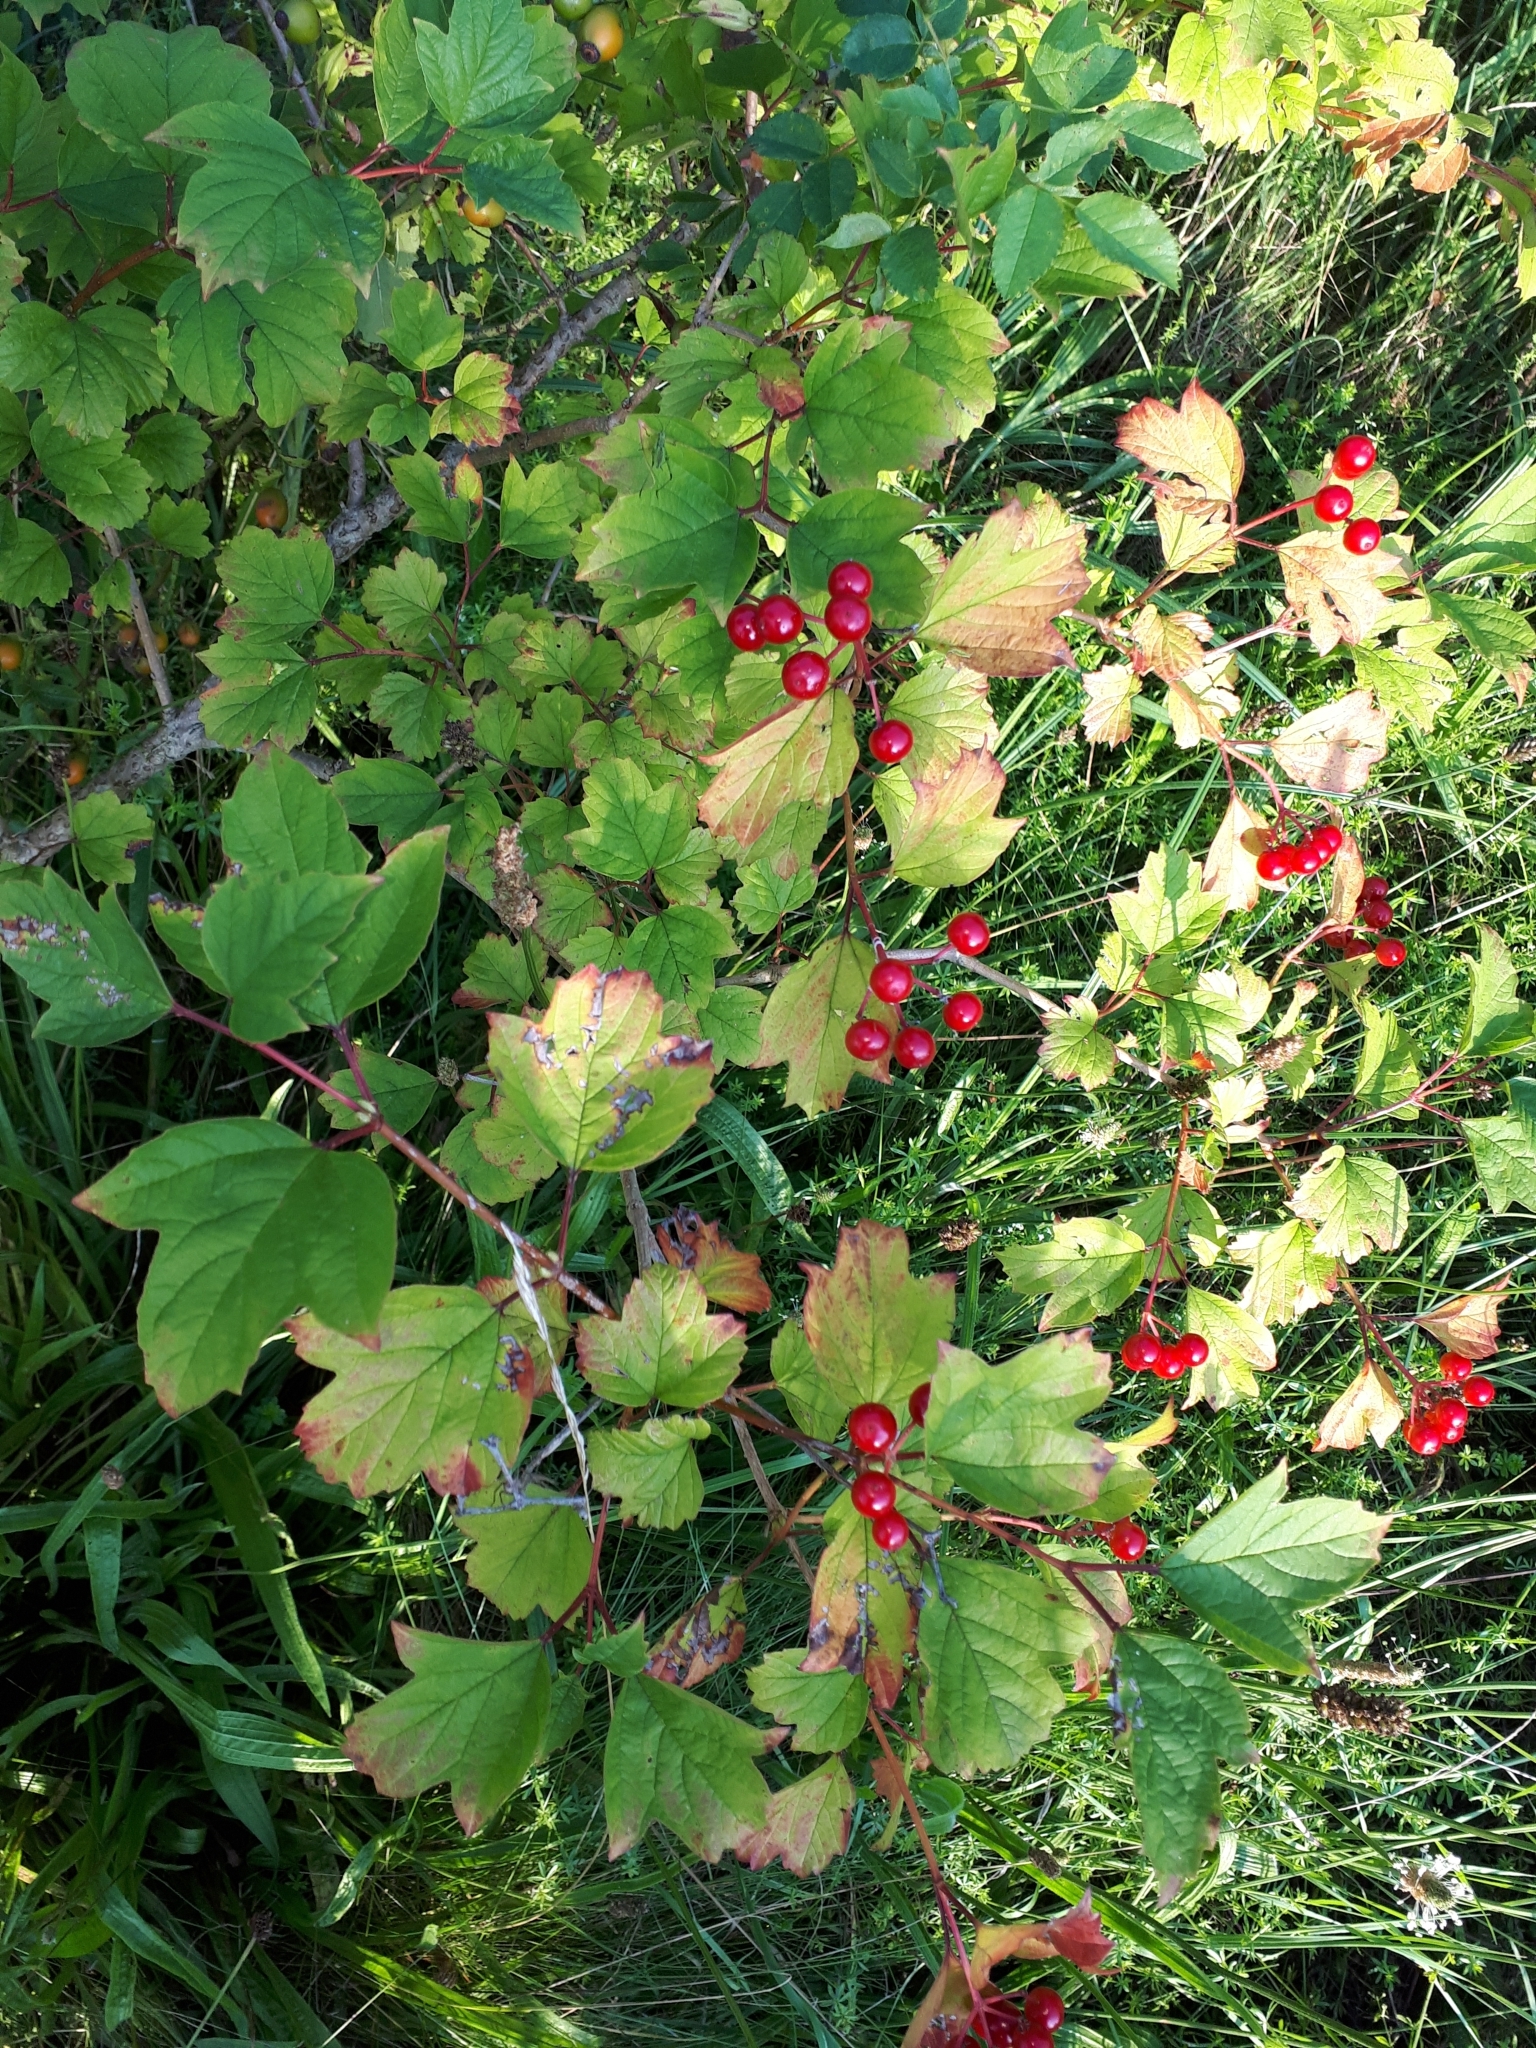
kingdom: Plantae
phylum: Tracheophyta
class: Magnoliopsida
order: Dipsacales
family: Viburnaceae
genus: Viburnum
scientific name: Viburnum opulus
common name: Guelder-rose
